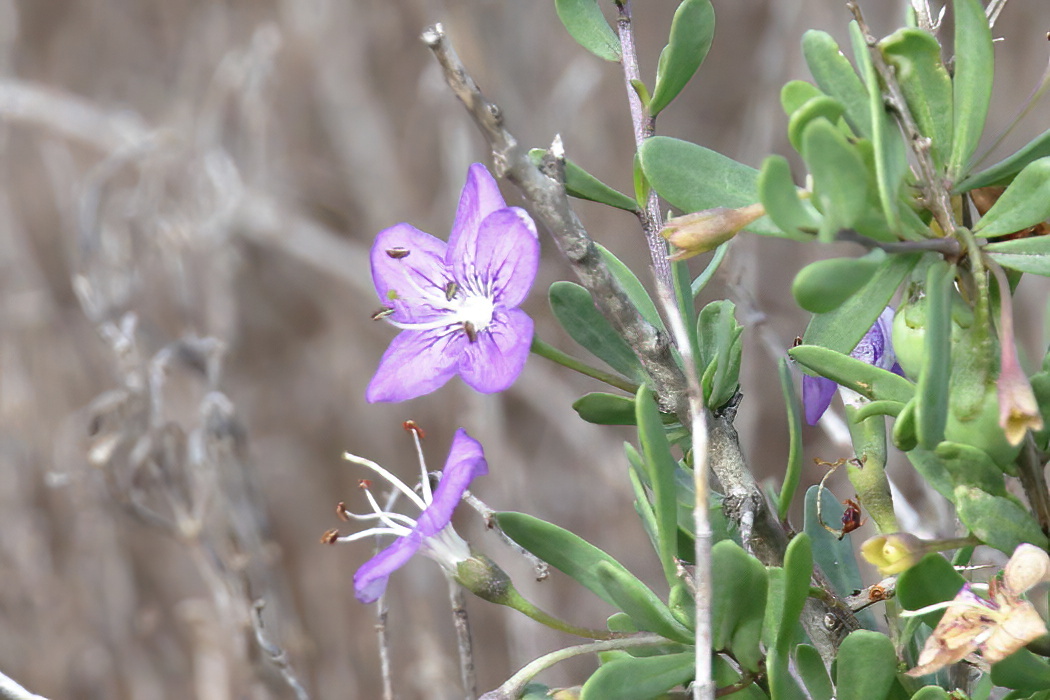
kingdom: Plantae
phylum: Tracheophyta
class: Magnoliopsida
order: Solanales
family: Solanaceae
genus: Lycium
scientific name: Lycium carolinianum
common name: Christmasberry
